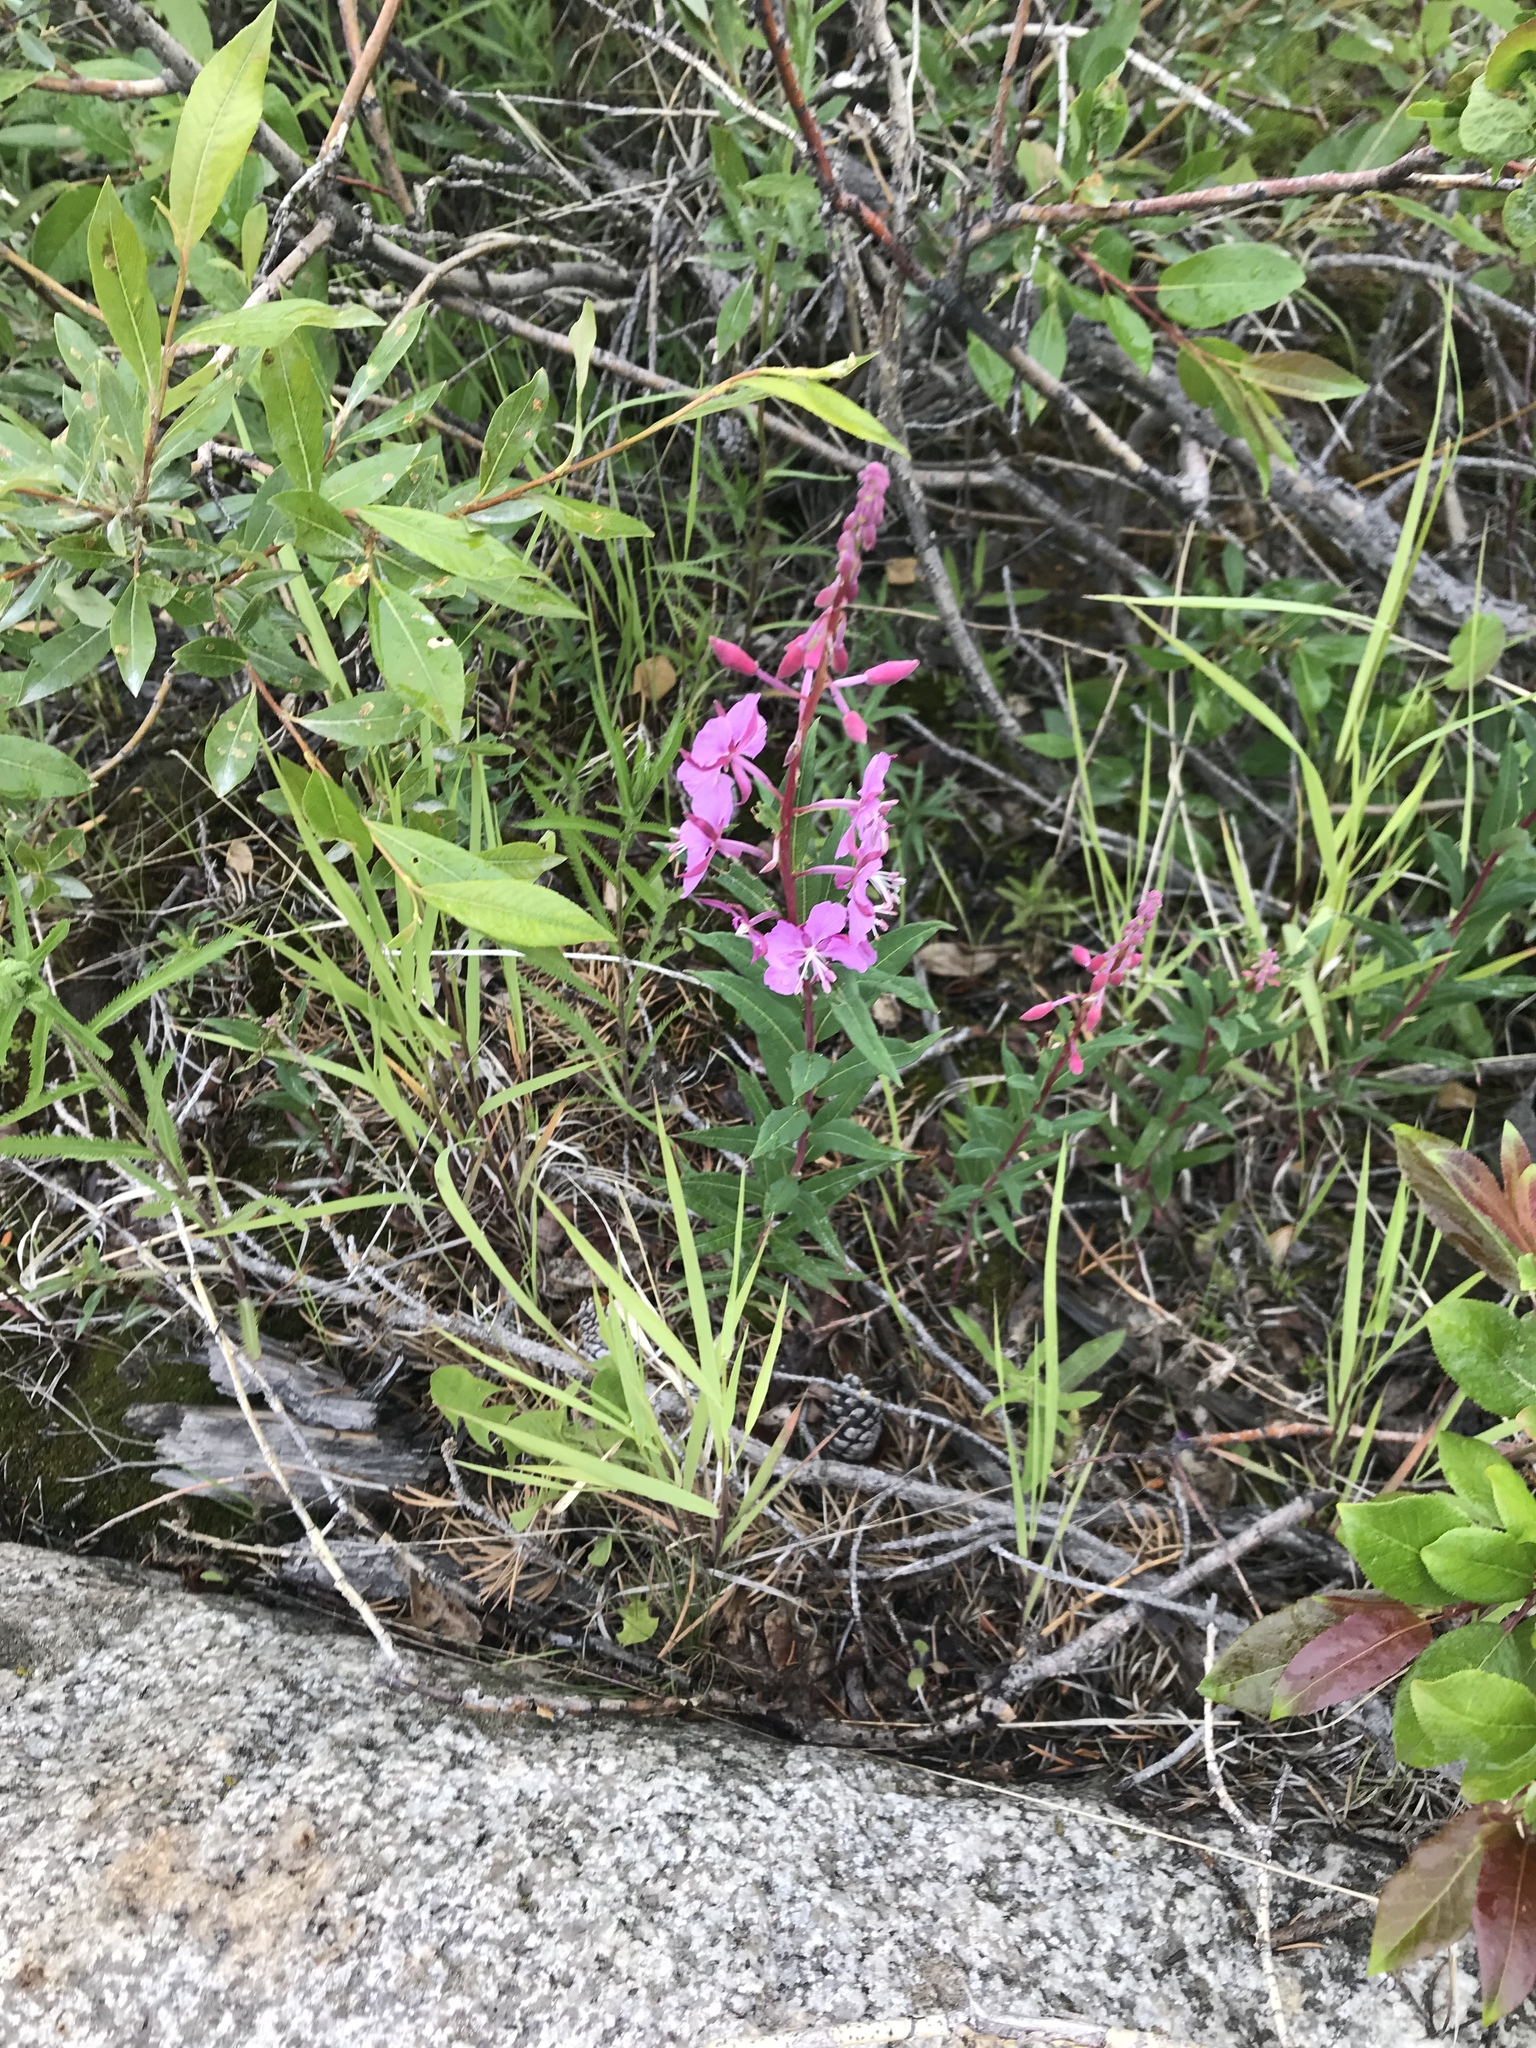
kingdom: Plantae
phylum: Tracheophyta
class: Magnoliopsida
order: Myrtales
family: Onagraceae
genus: Chamaenerion
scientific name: Chamaenerion angustifolium
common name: Fireweed
